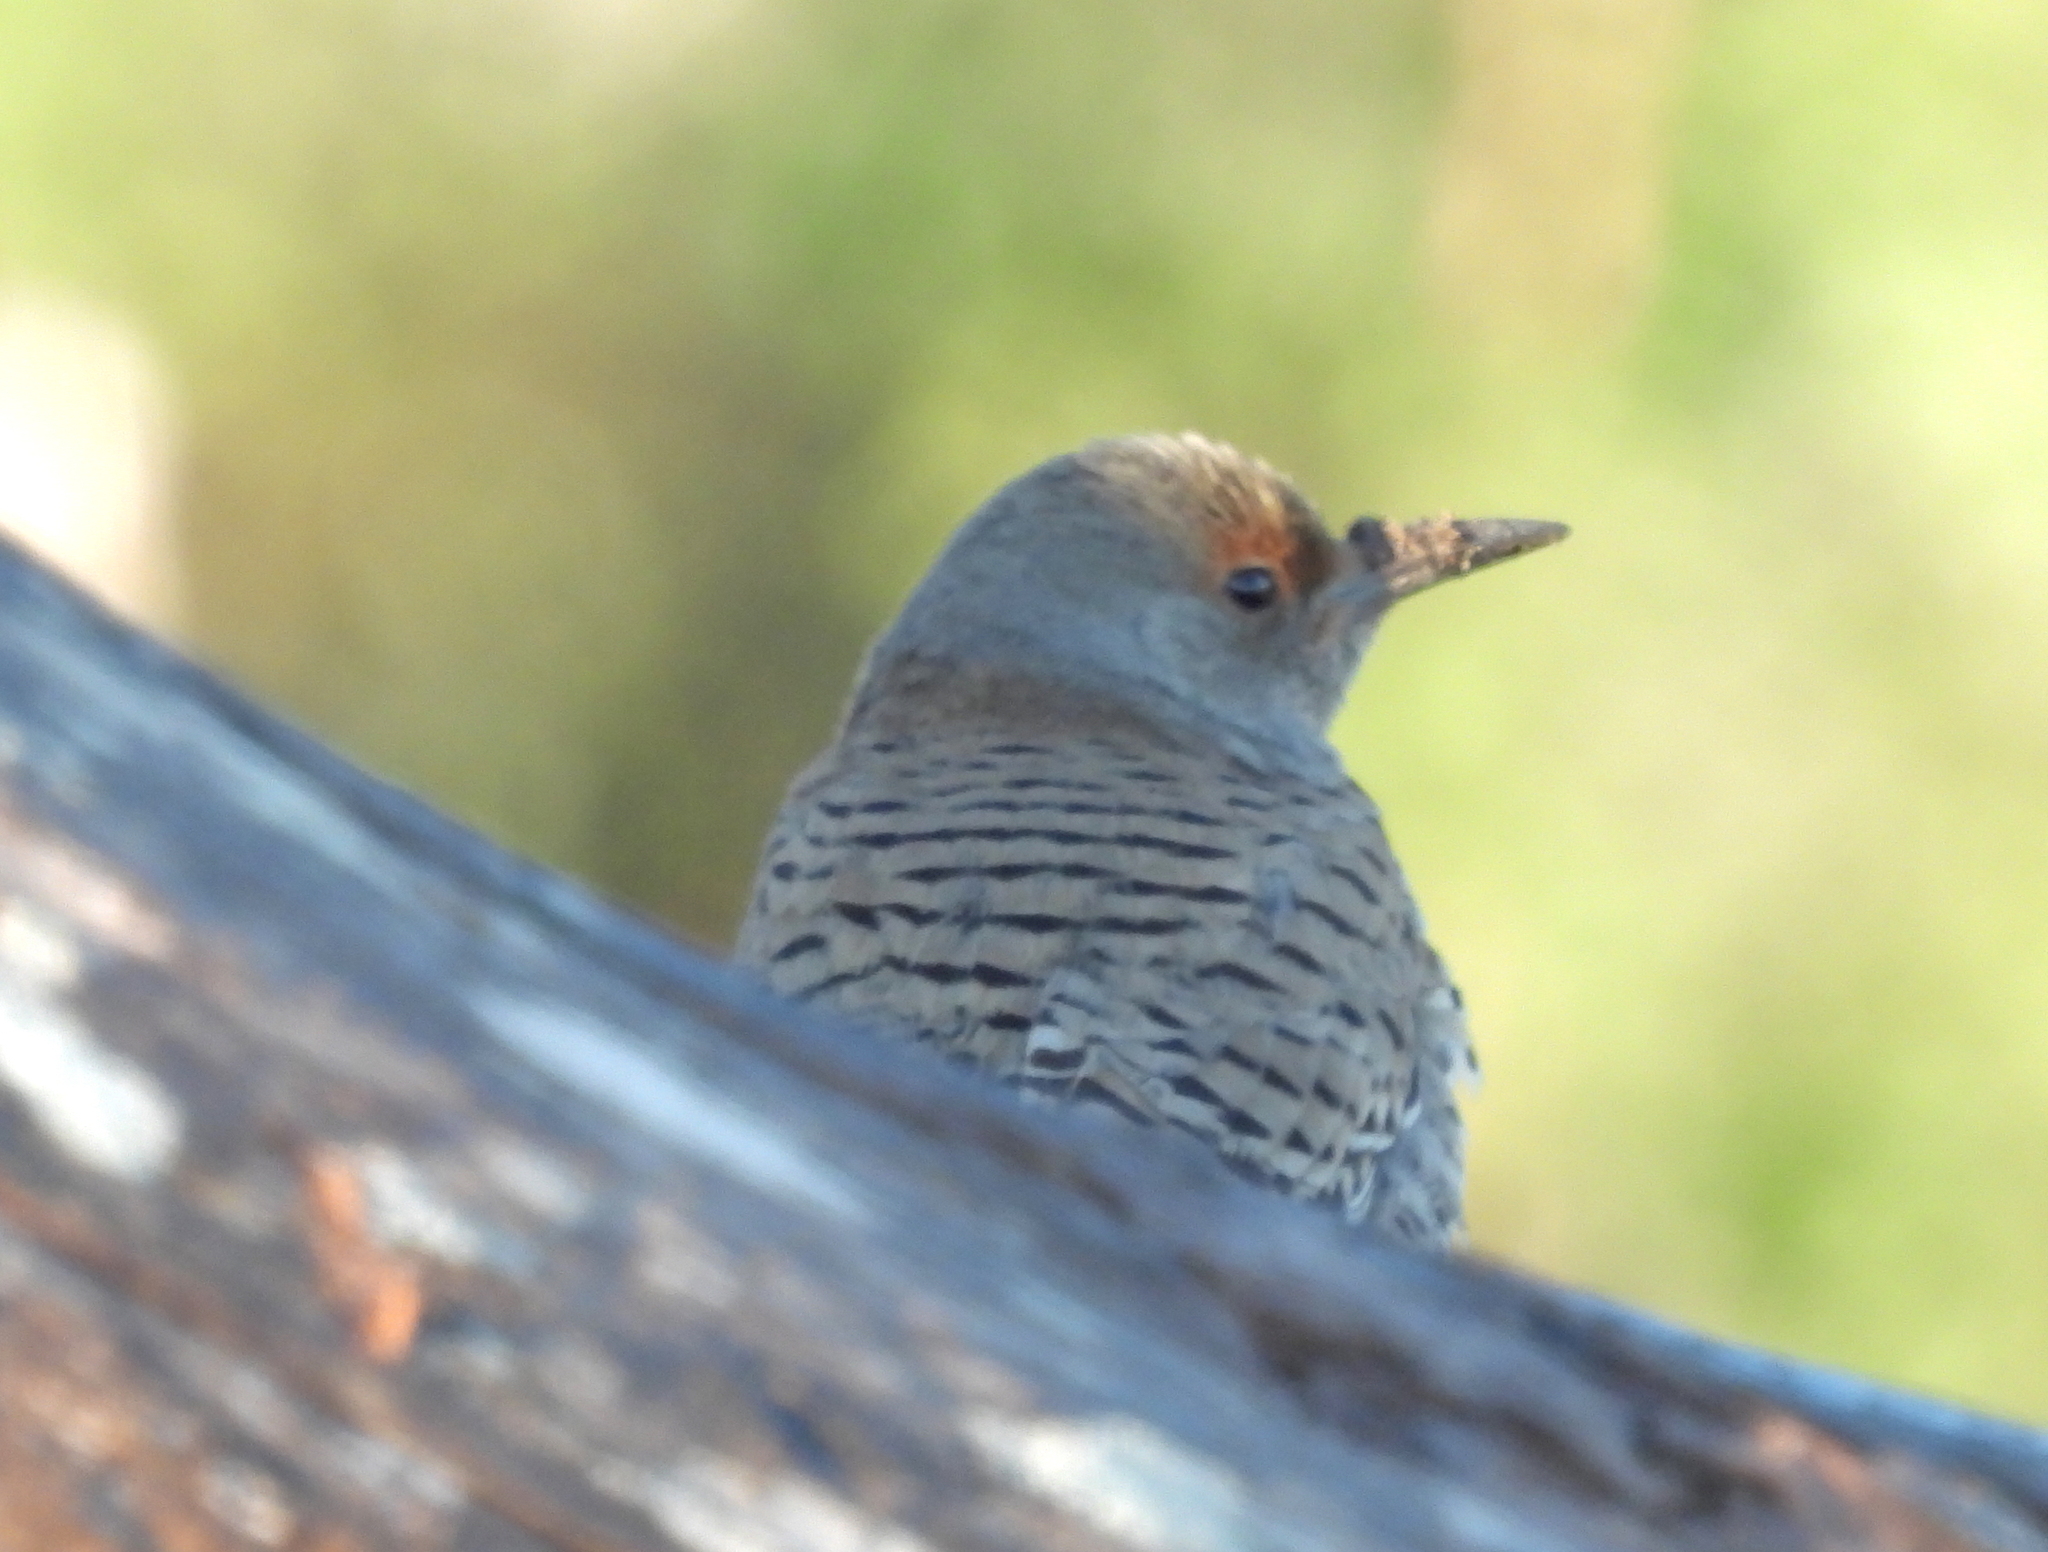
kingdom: Animalia
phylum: Chordata
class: Aves
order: Piciformes
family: Picidae
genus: Colaptes
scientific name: Colaptes auratus
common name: Northern flicker
